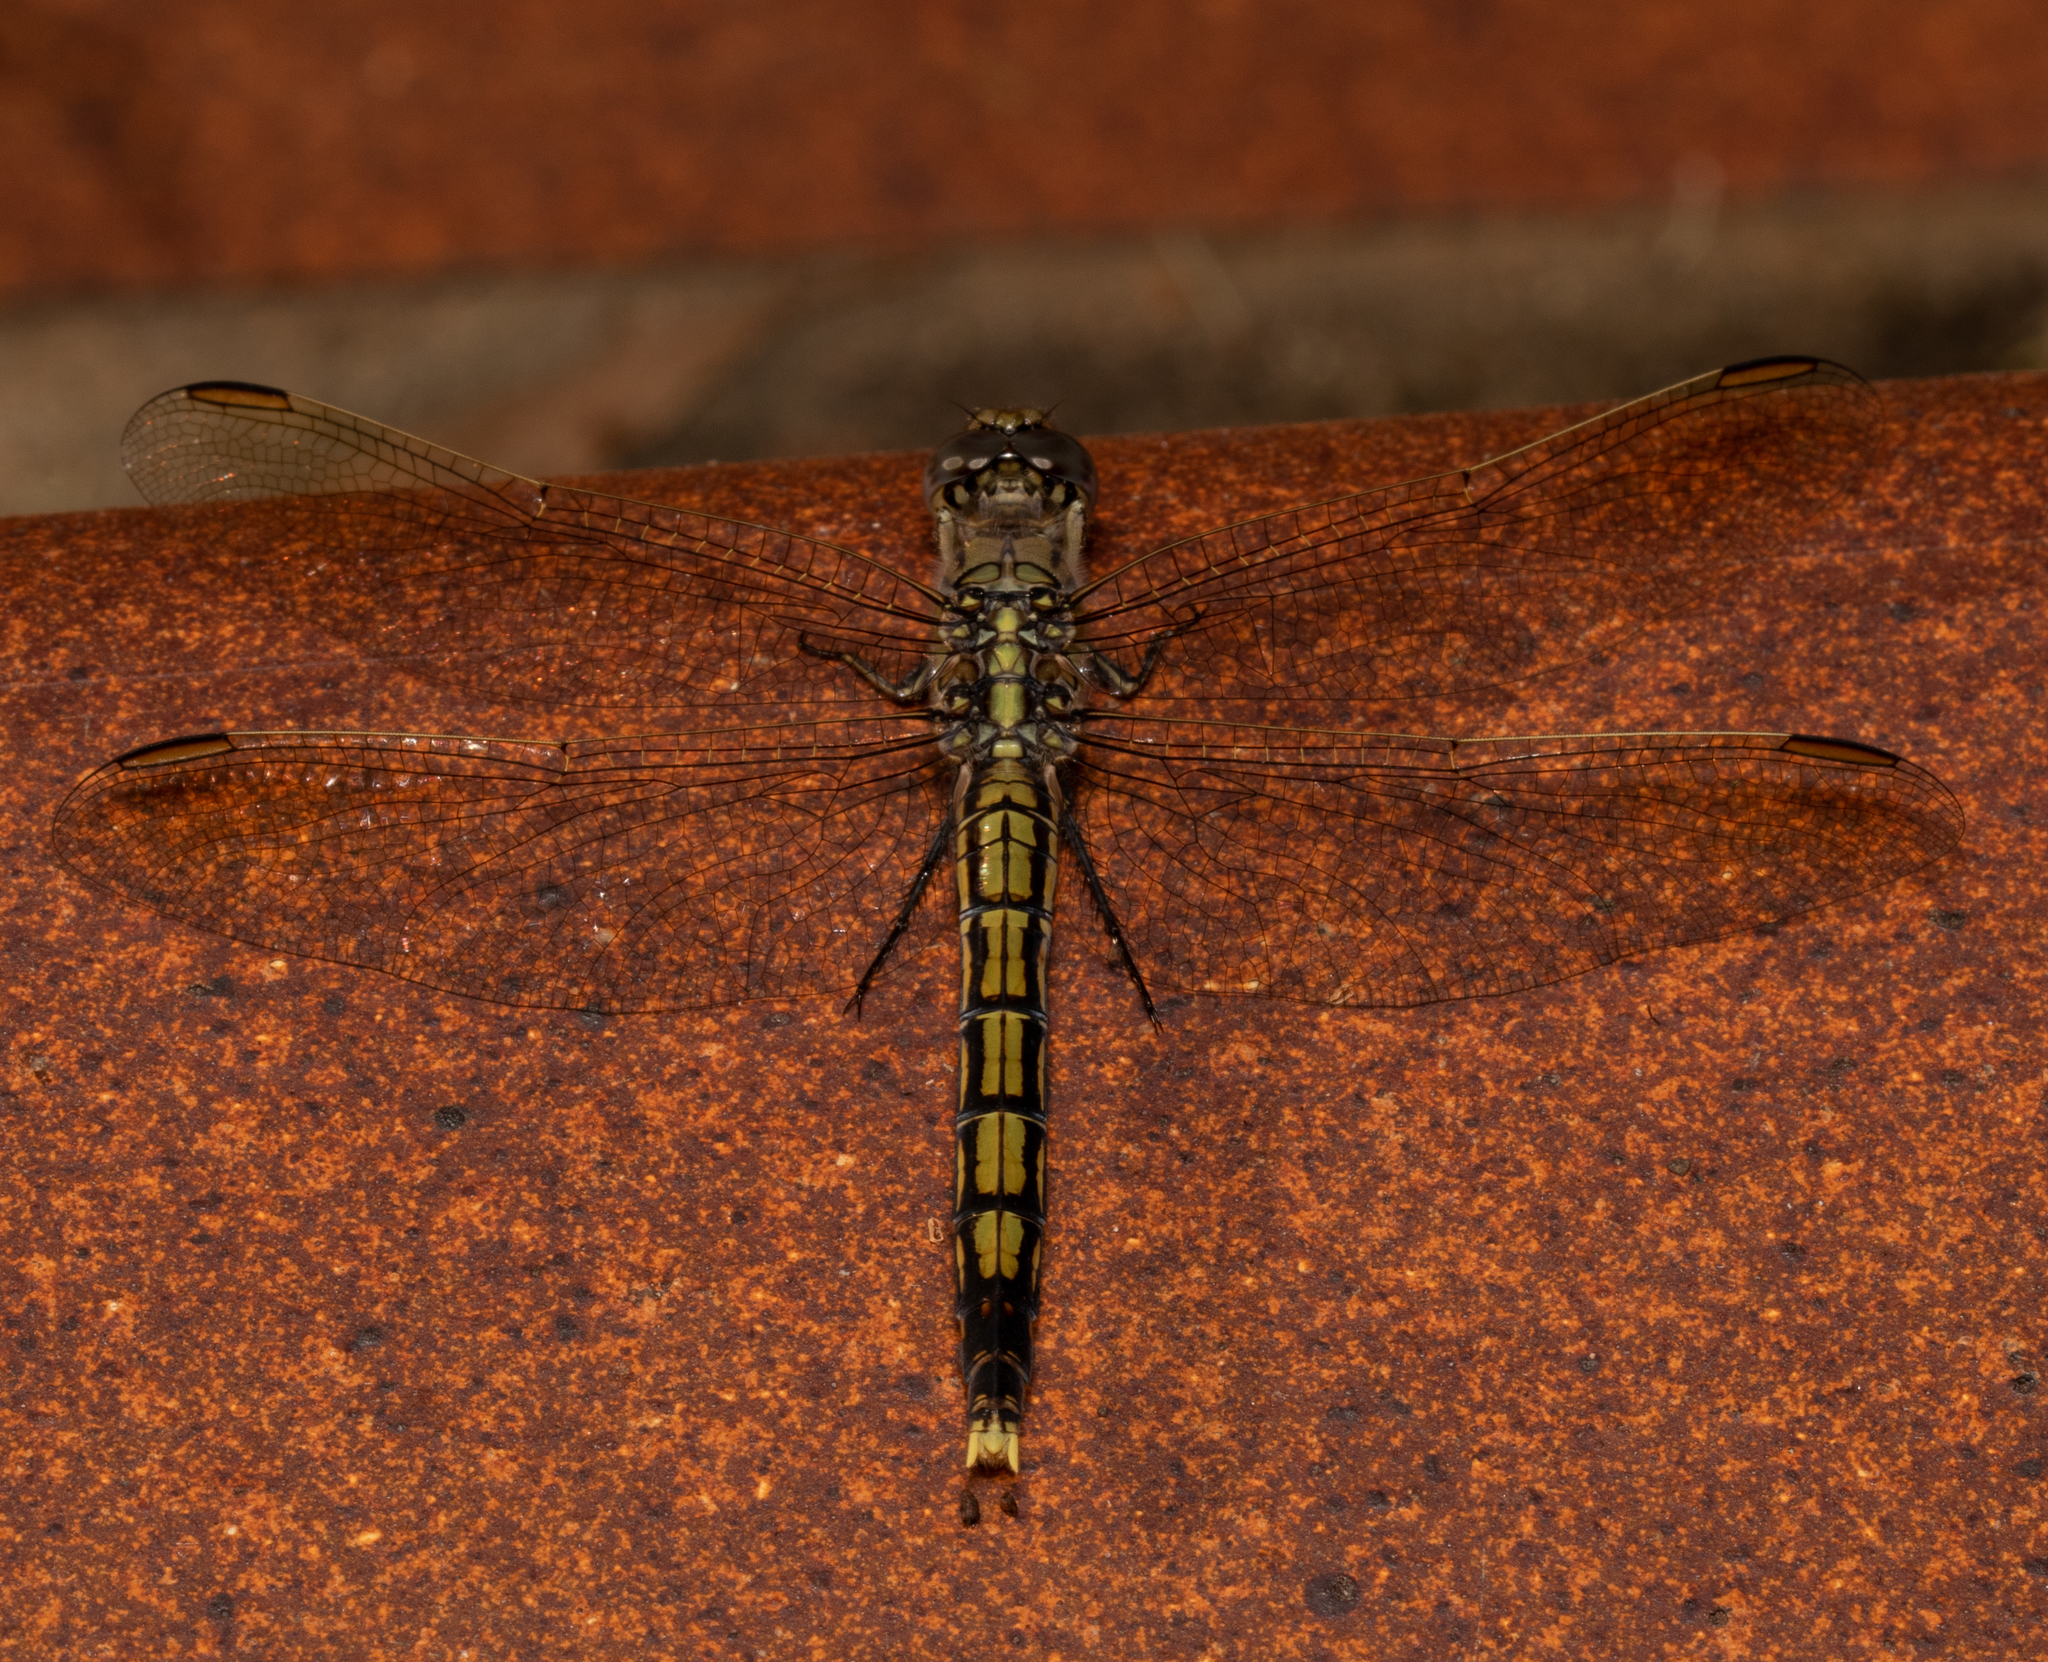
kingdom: Animalia
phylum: Arthropoda
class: Insecta
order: Odonata
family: Libellulidae
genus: Orthetrum
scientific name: Orthetrum caledonicum
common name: Blue skimmer
